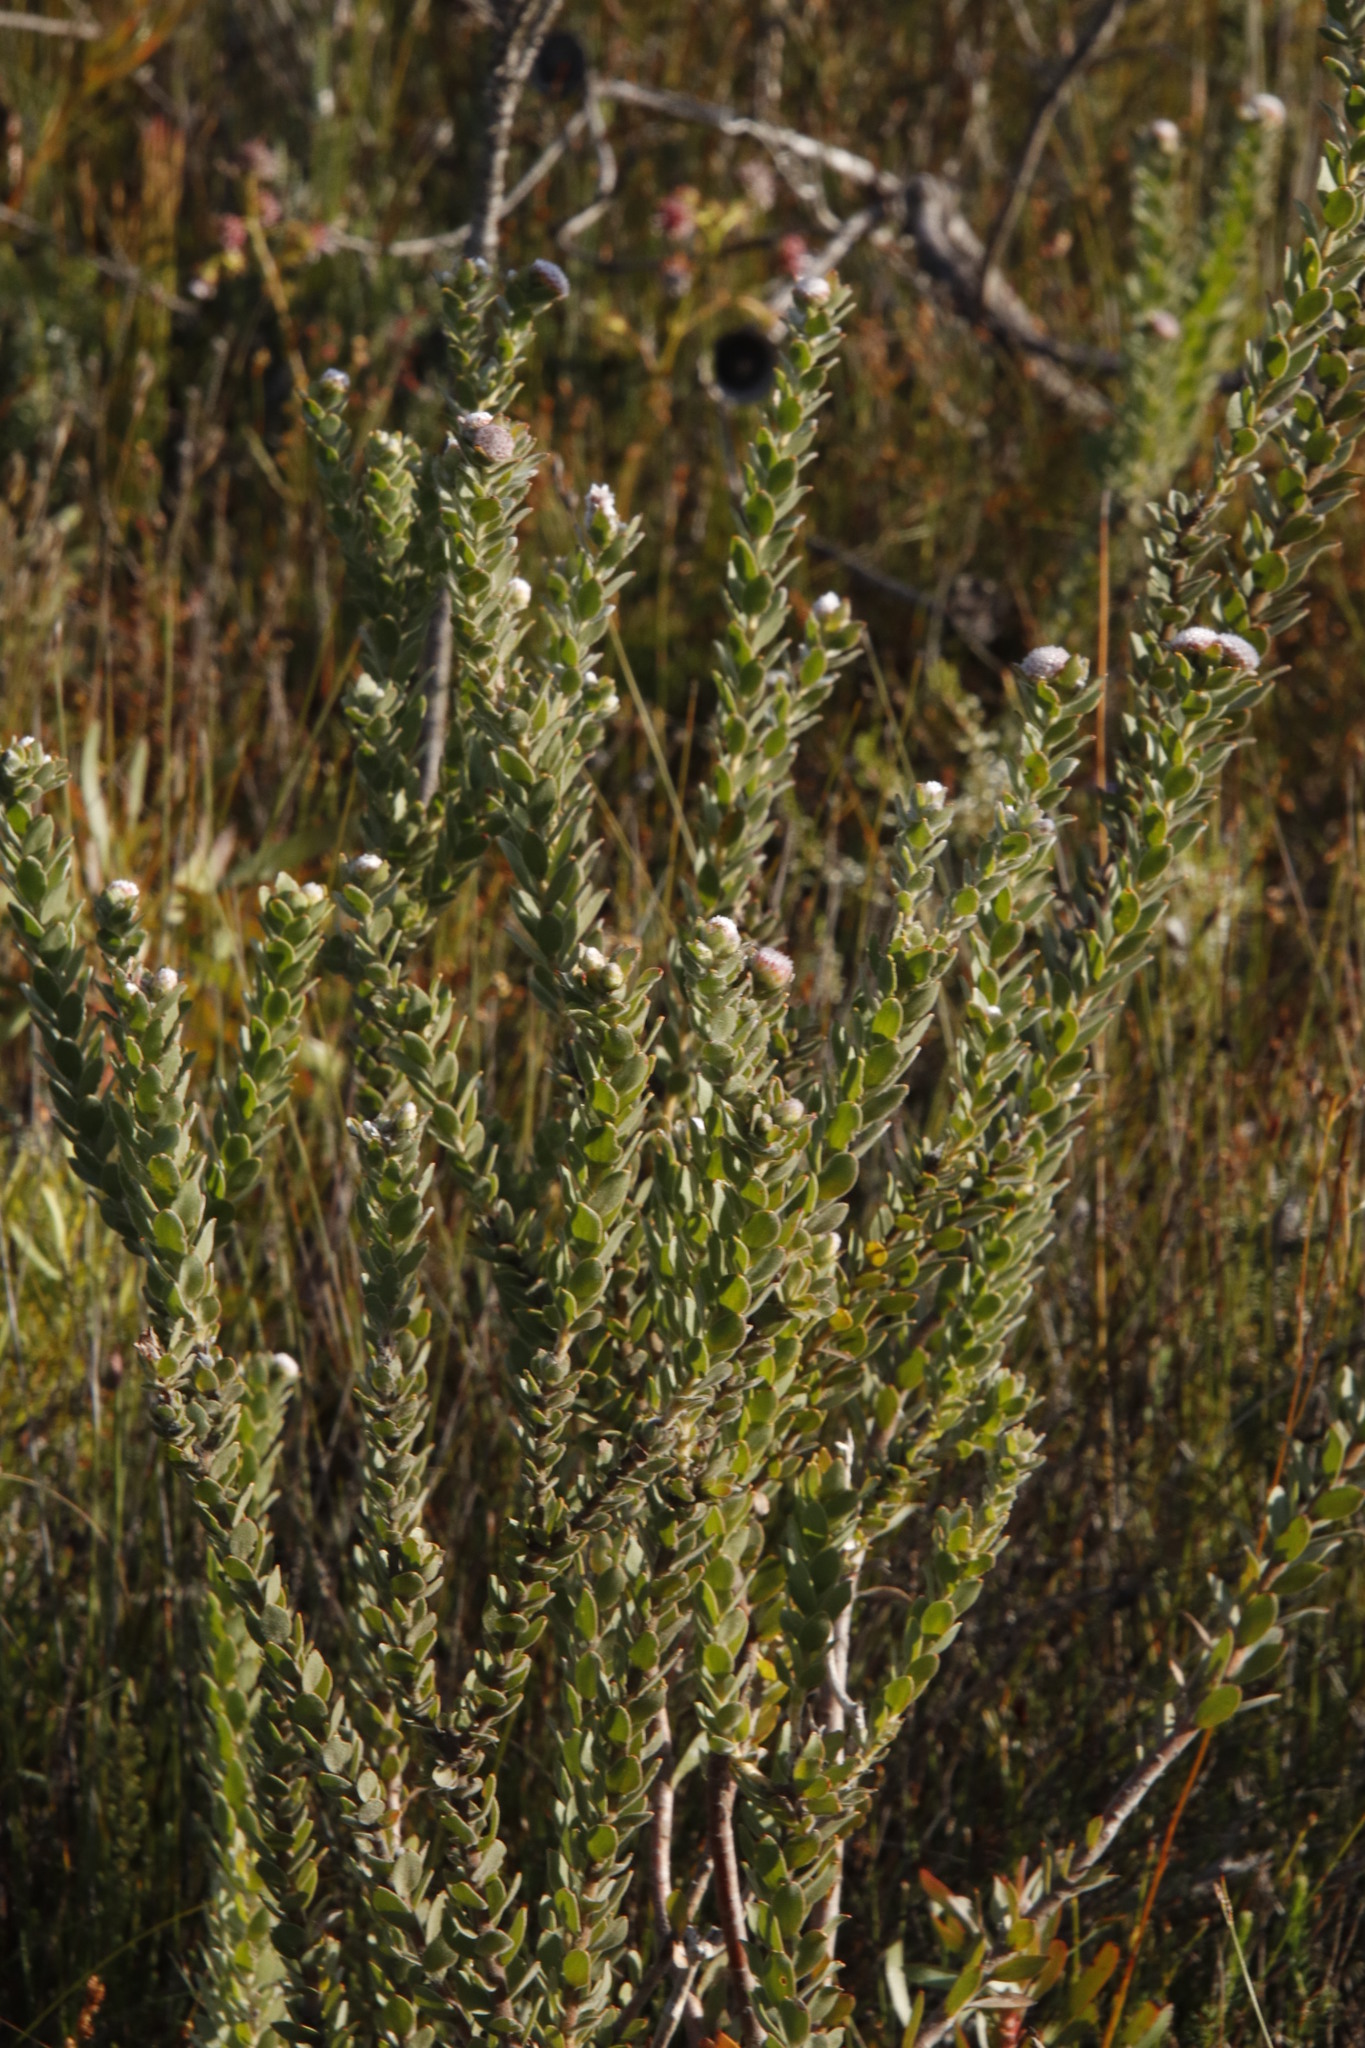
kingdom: Plantae
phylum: Tracheophyta
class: Magnoliopsida
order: Proteales
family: Proteaceae
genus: Leucospermum
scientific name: Leucospermum truncatulum
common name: Oval-leaf pincushion
